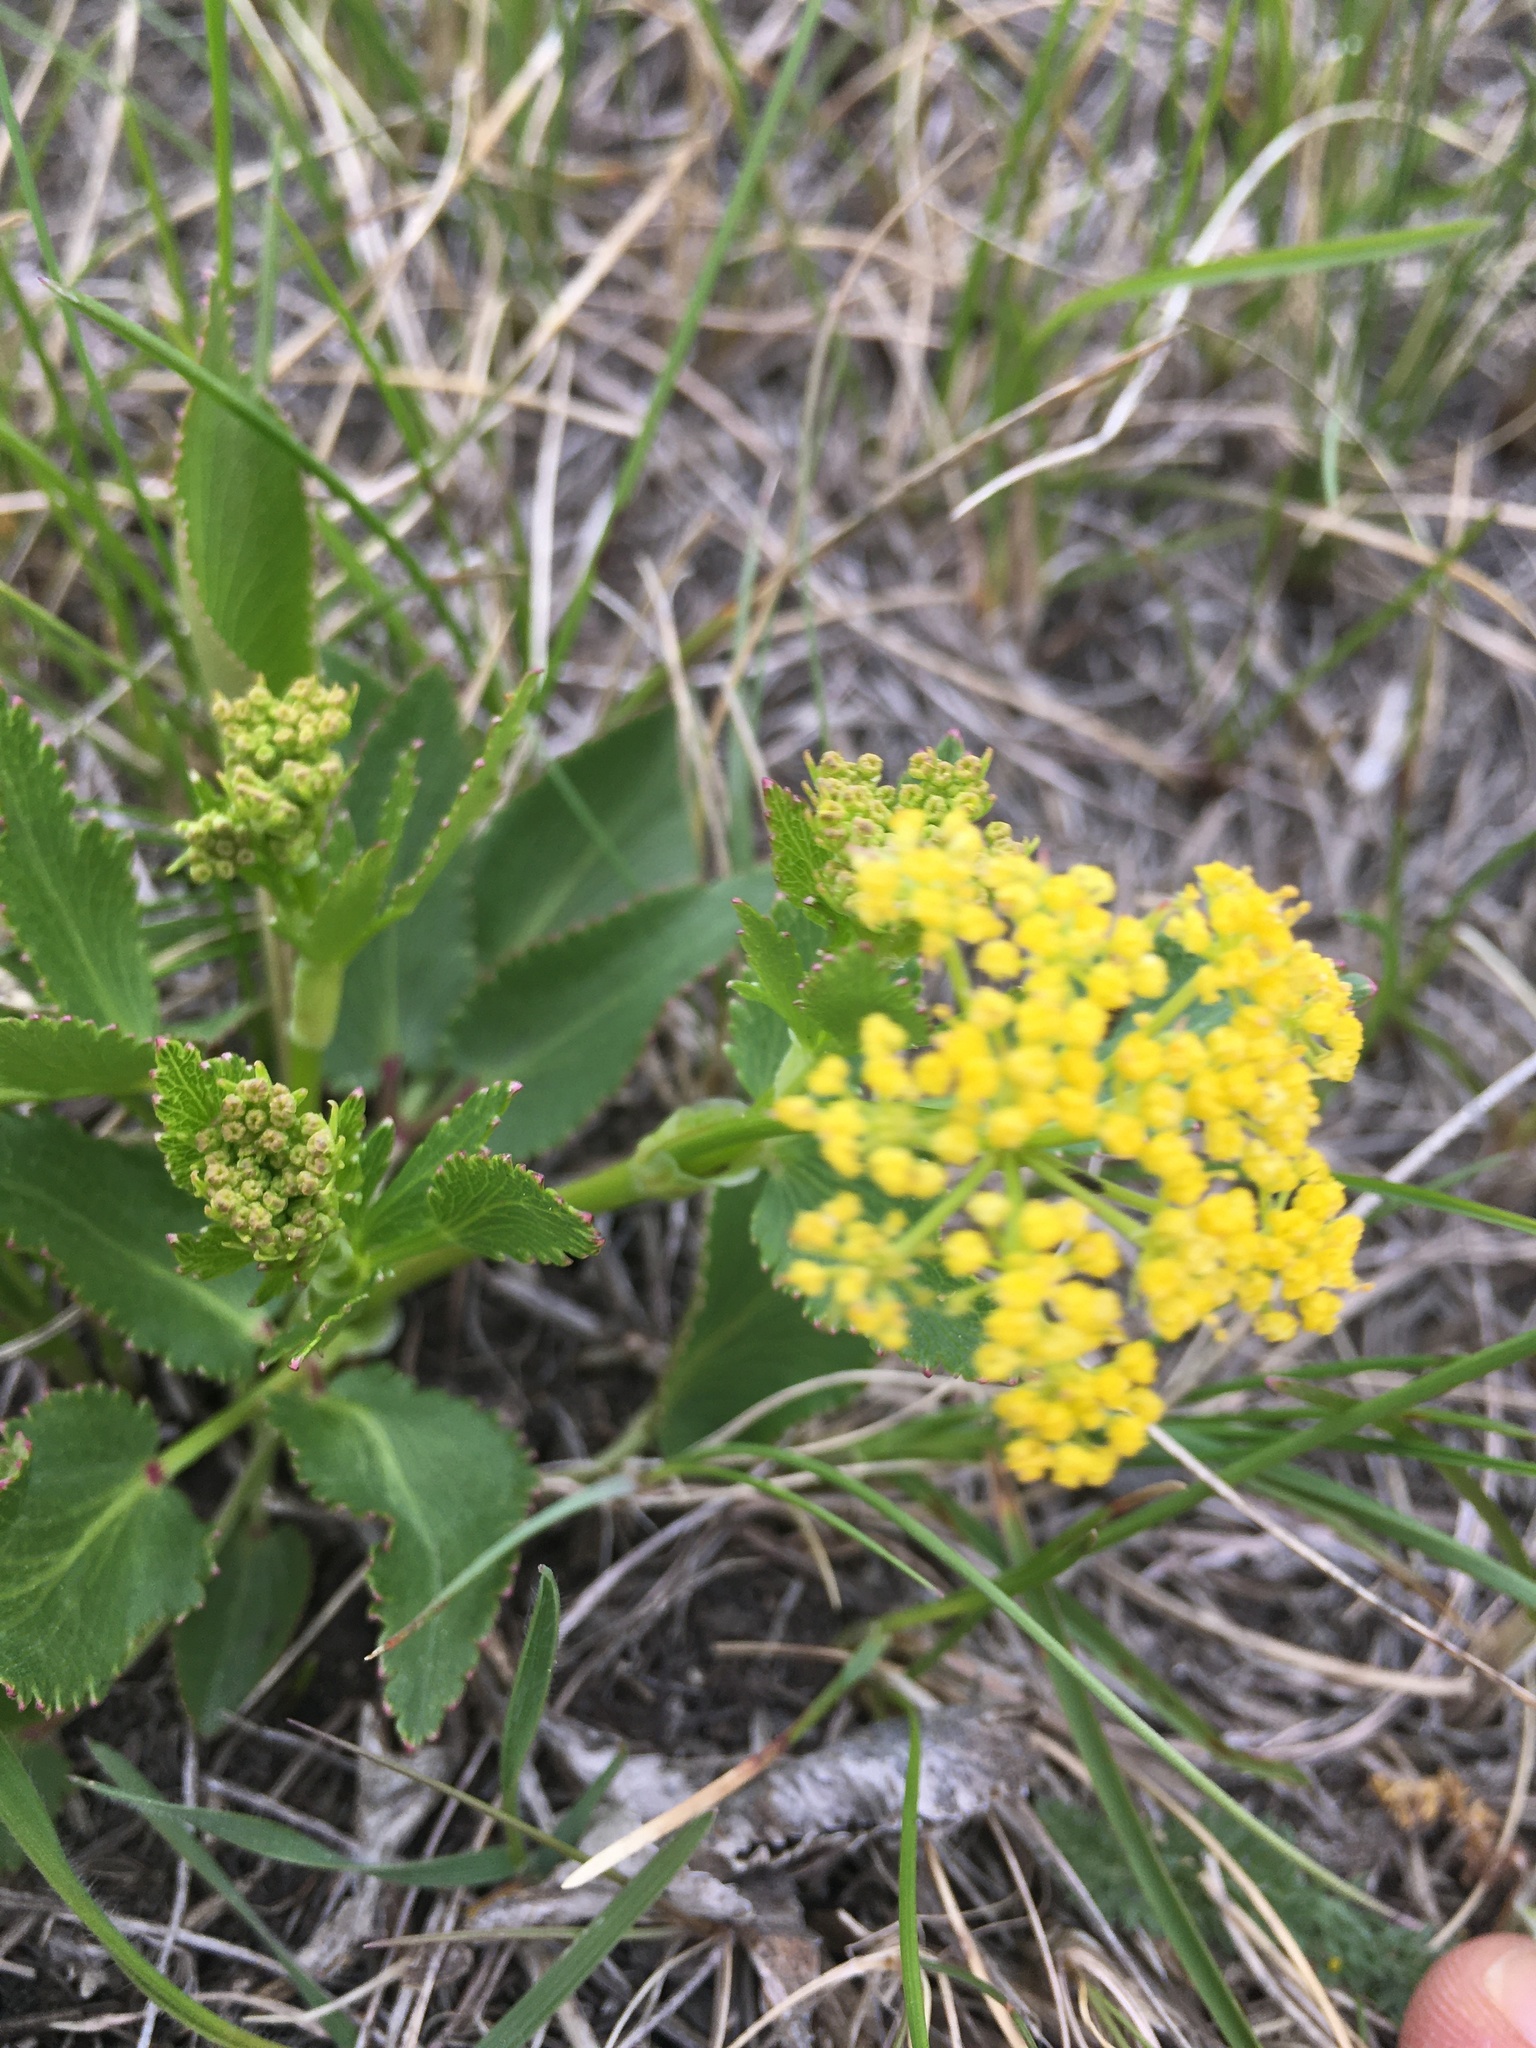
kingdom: Plantae
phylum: Tracheophyta
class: Magnoliopsida
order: Apiales
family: Apiaceae
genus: Zizia
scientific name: Zizia aptera
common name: Heart-leaved alexanders
